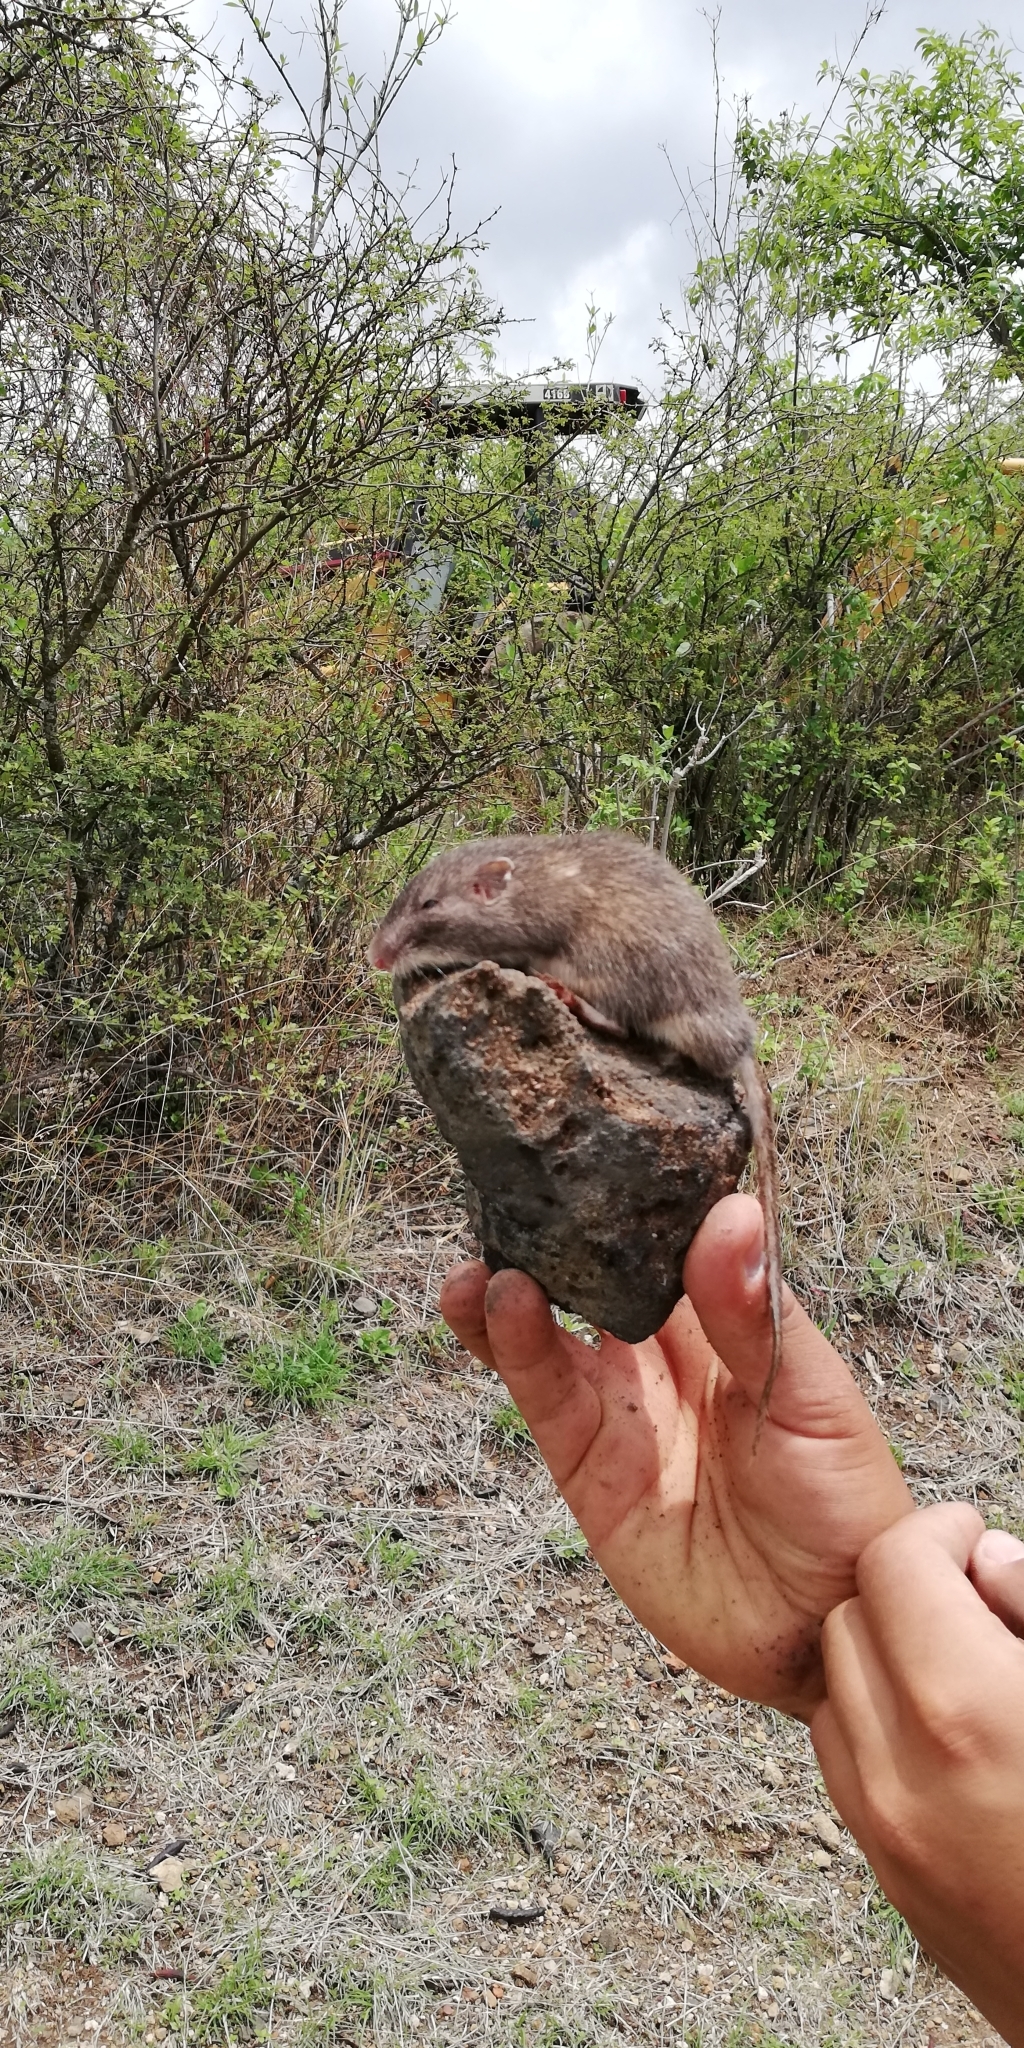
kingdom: Animalia
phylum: Chordata
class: Mammalia
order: Rodentia
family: Heteromyidae
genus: Liomys
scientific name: Liomys irroratus
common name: Mexican spiny pocket mouse
